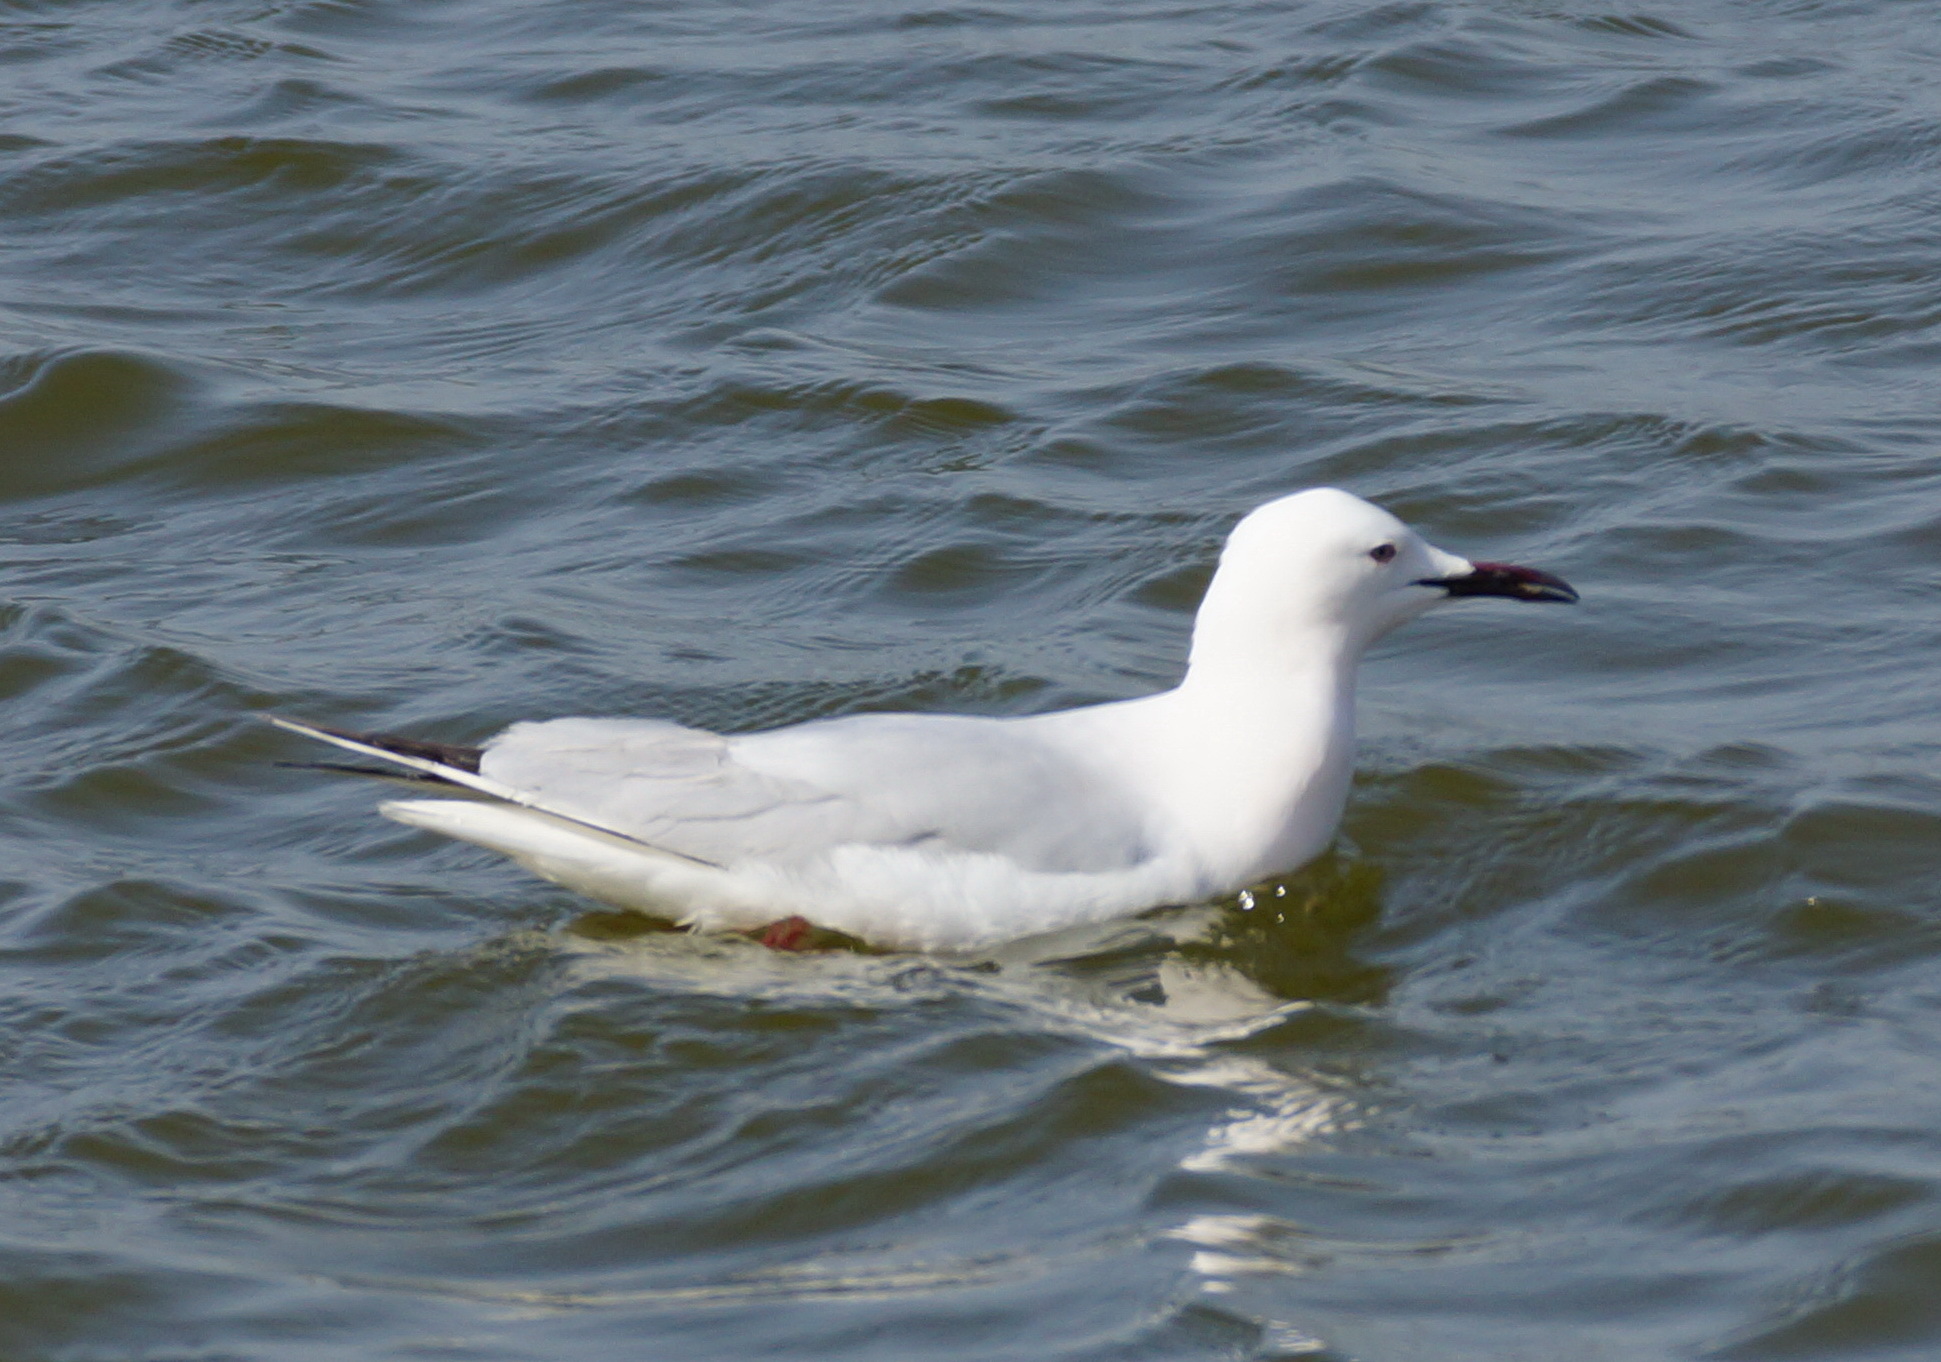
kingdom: Animalia
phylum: Chordata
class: Aves
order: Charadriiformes
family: Laridae
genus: Chroicocephalus
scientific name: Chroicocephalus genei
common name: Slender-billed gull
